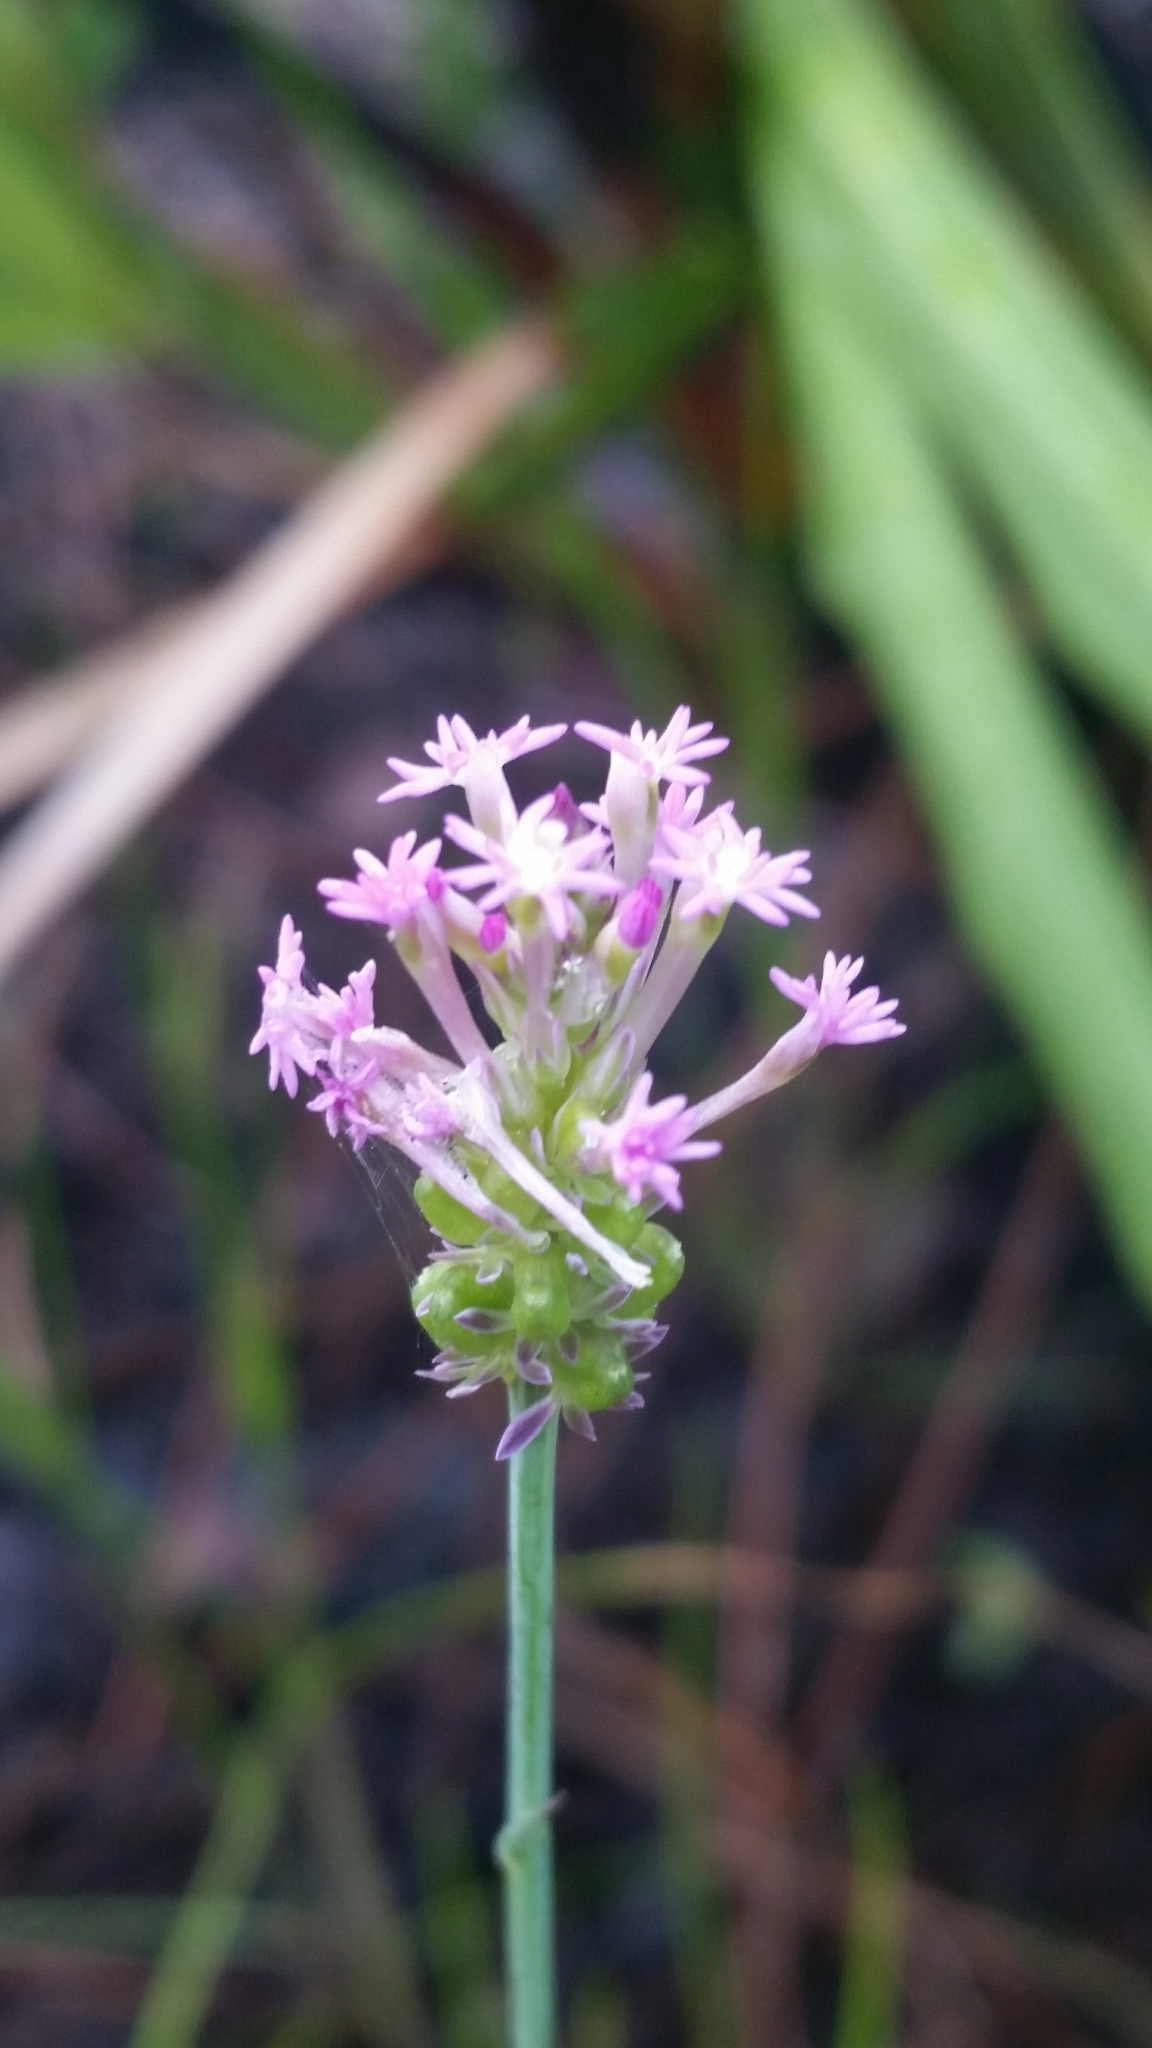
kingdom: Plantae
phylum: Tracheophyta
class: Magnoliopsida
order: Fabales
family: Polygalaceae
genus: Polygala
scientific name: Polygala incarnata
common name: Pink milkwort
